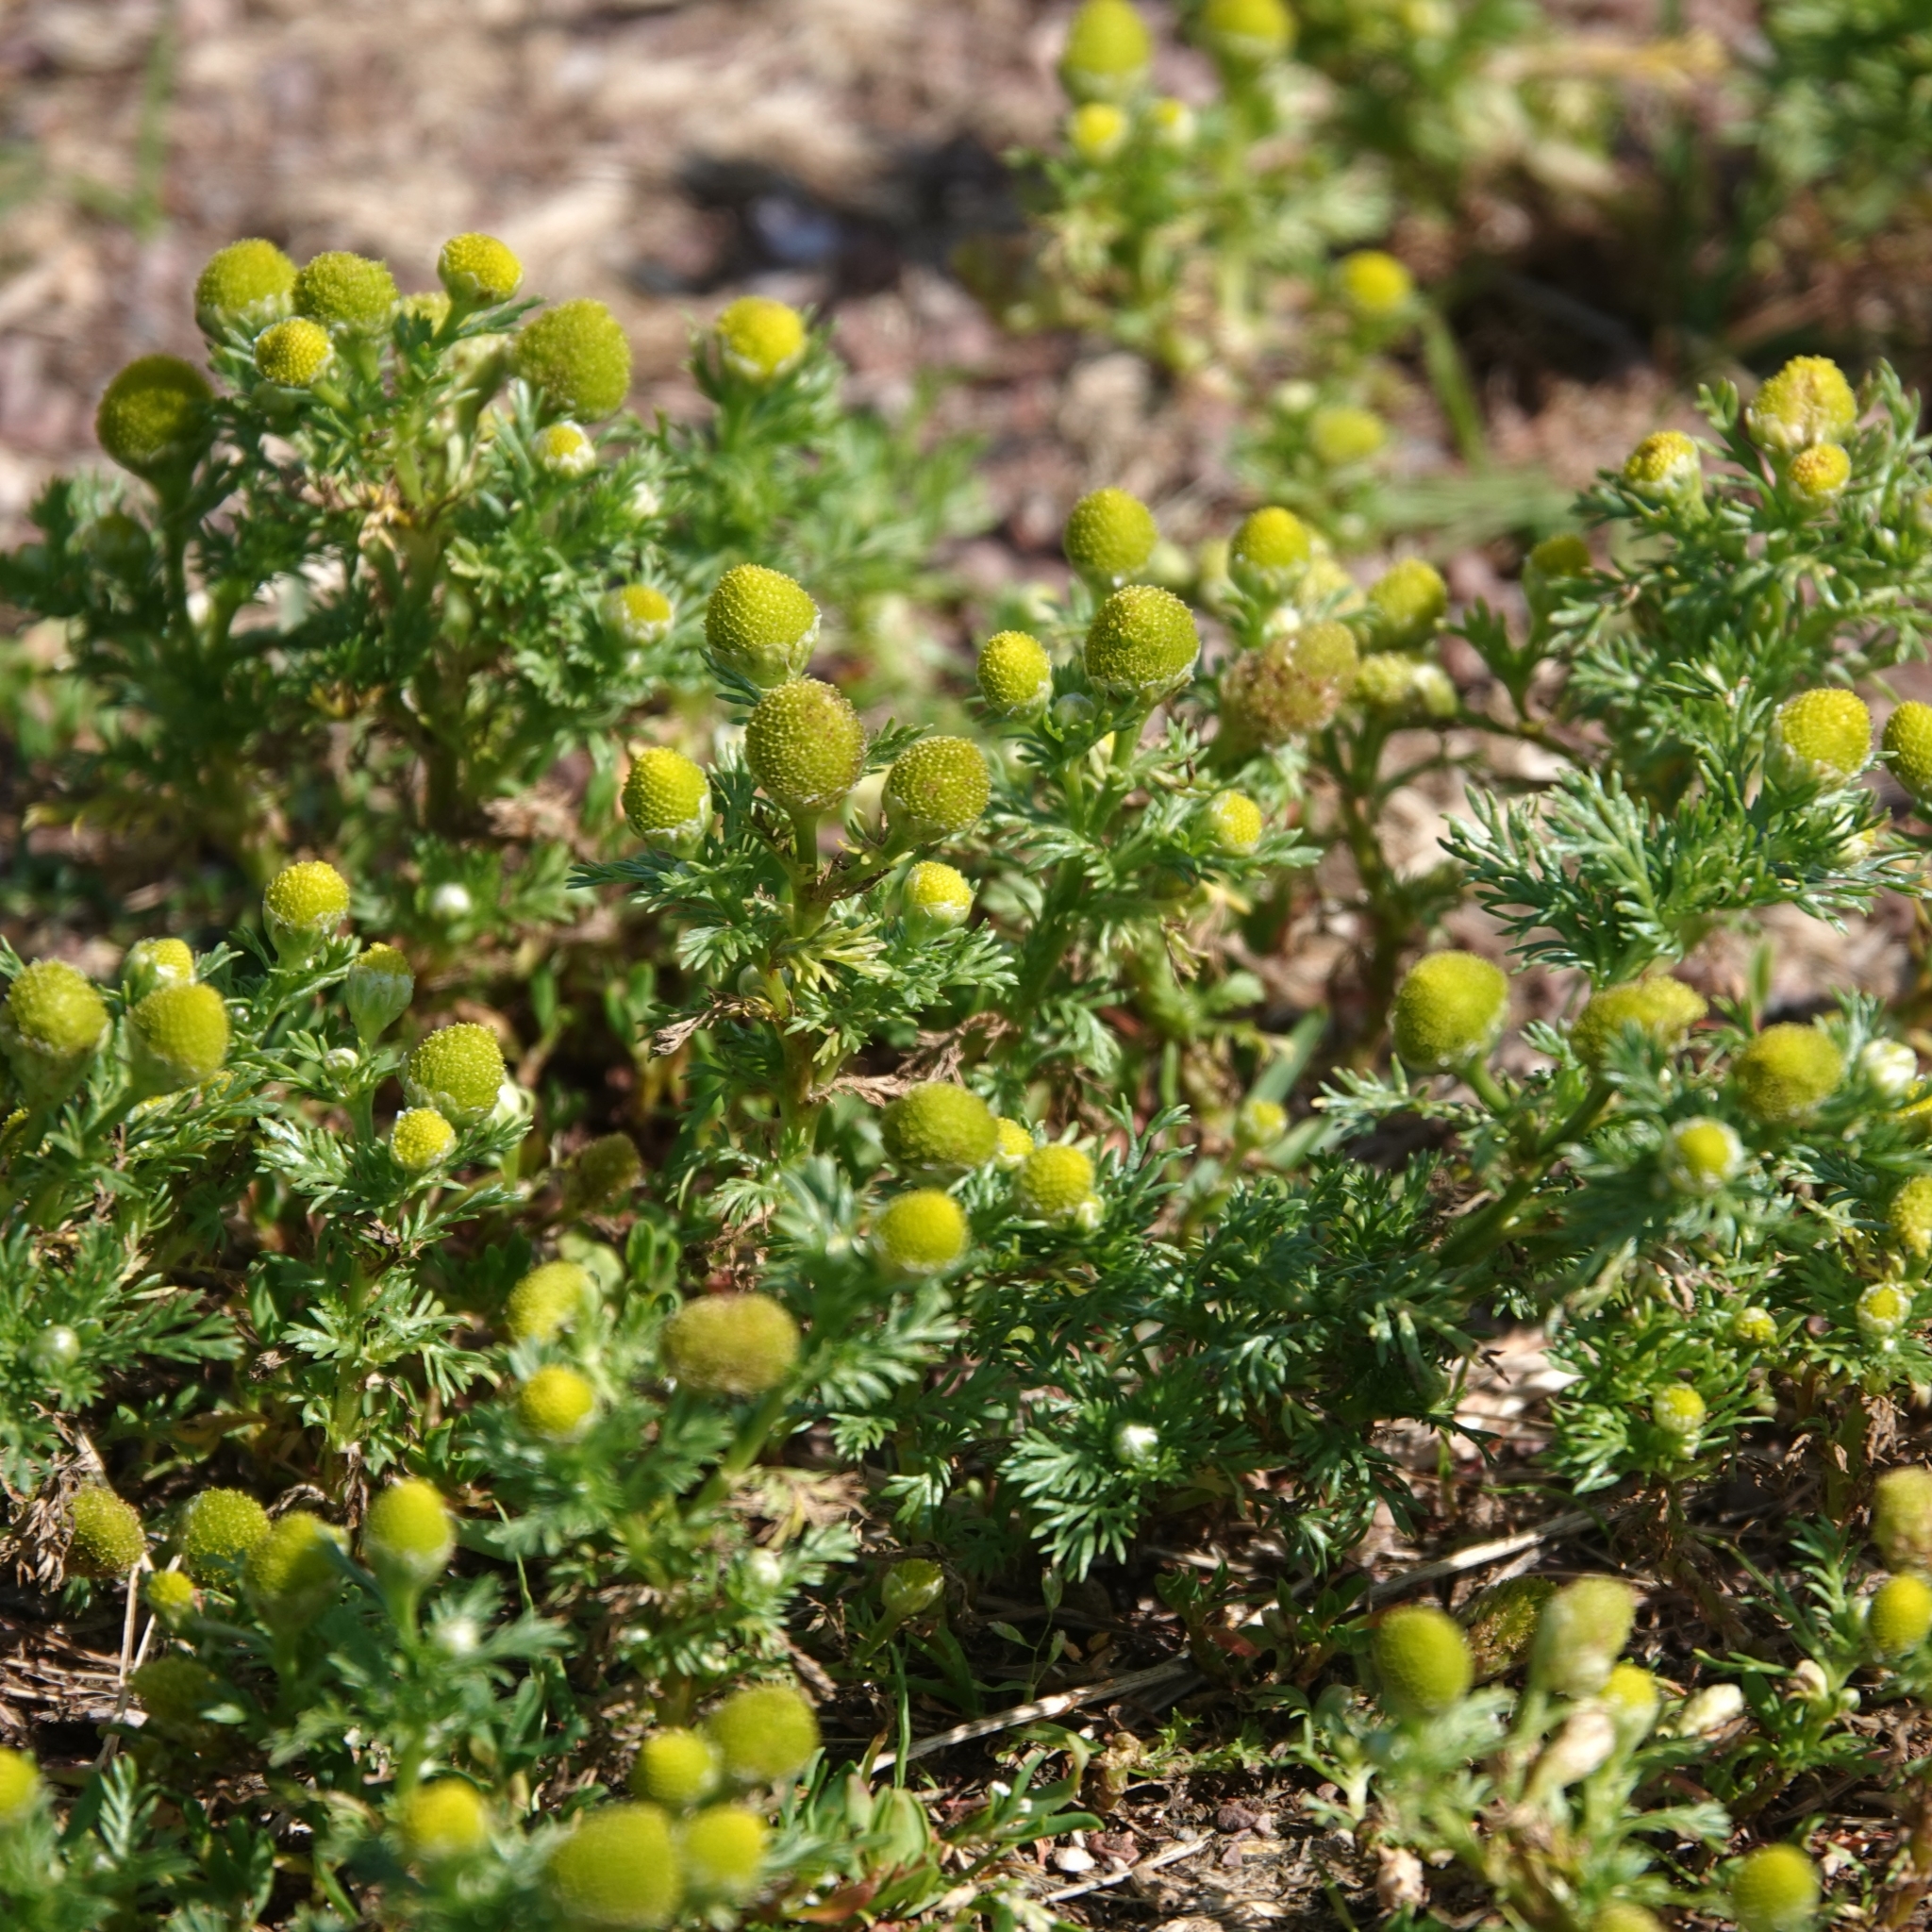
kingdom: Plantae
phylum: Tracheophyta
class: Magnoliopsida
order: Asterales
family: Asteraceae
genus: Matricaria
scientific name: Matricaria discoidea
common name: Disc mayweed
